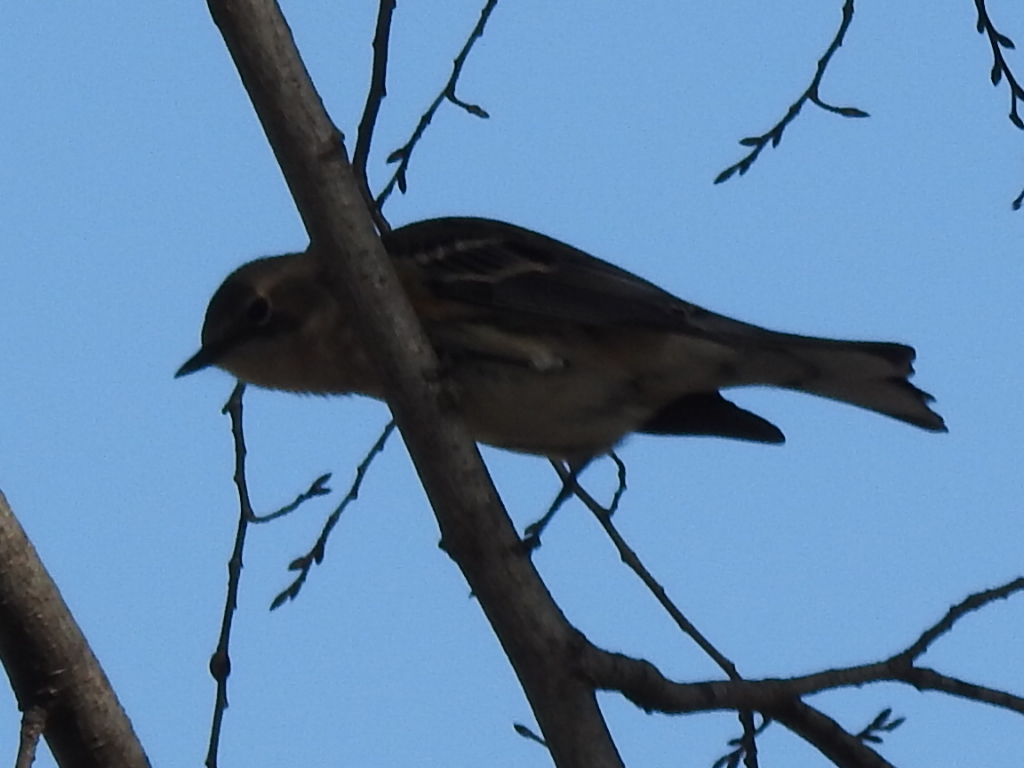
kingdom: Animalia
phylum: Chordata
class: Aves
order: Passeriformes
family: Parulidae
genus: Setophaga
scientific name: Setophaga coronata
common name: Myrtle warbler
